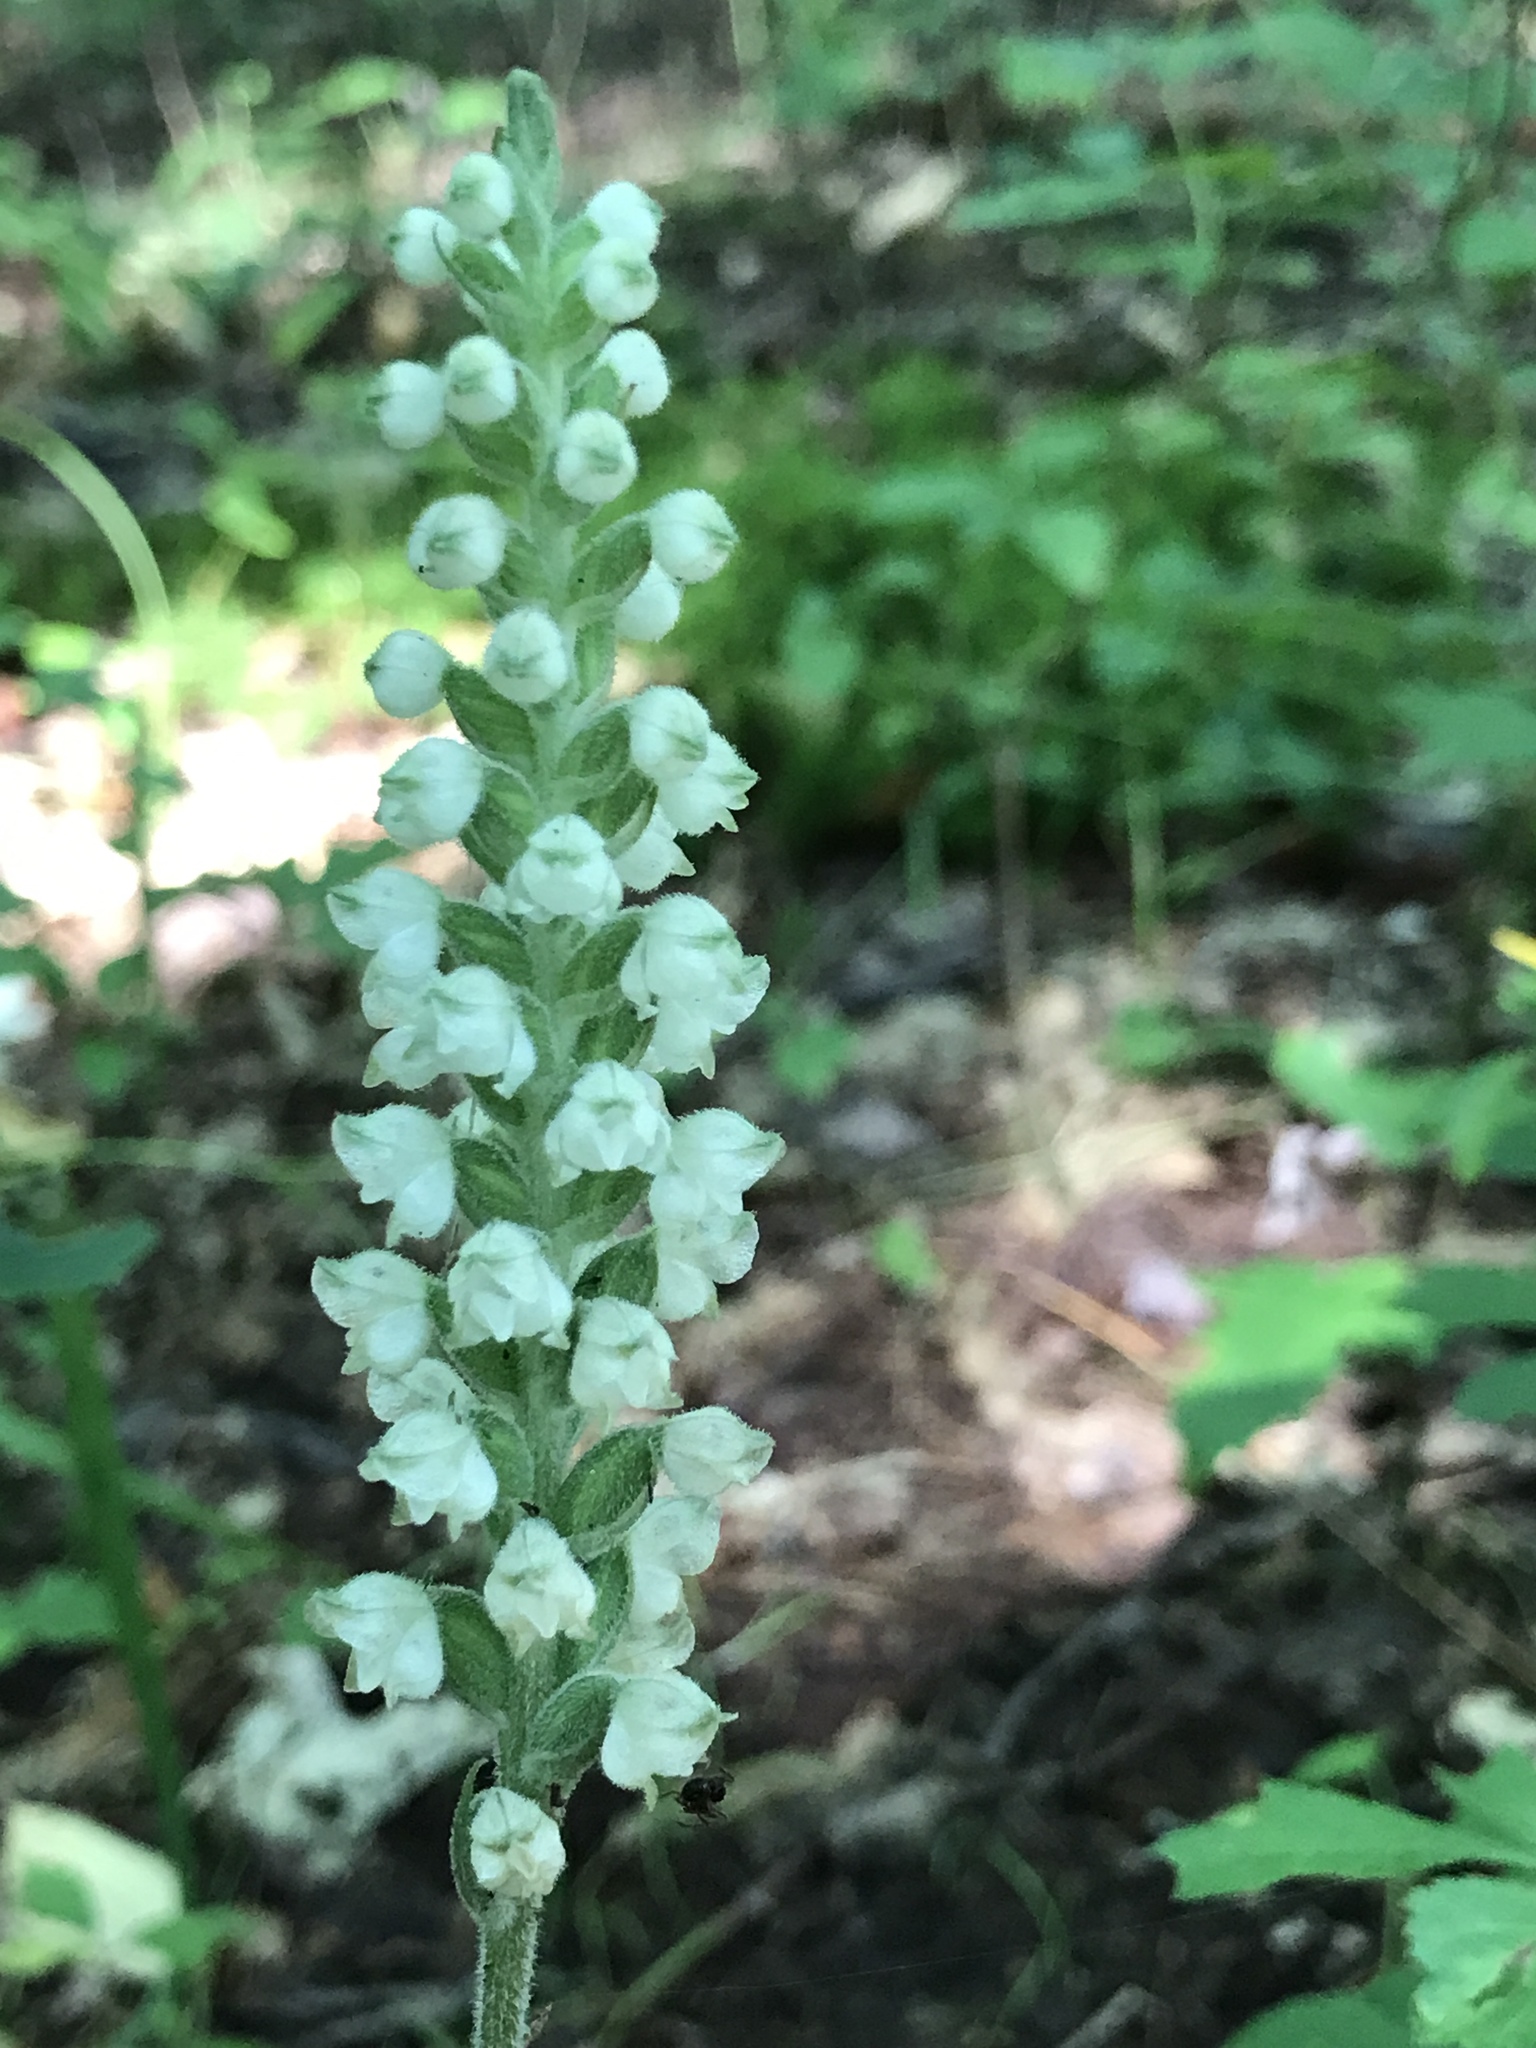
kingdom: Plantae
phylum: Tracheophyta
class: Liliopsida
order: Asparagales
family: Orchidaceae
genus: Goodyera
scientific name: Goodyera pubescens
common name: Downy rattlesnake-plantain
